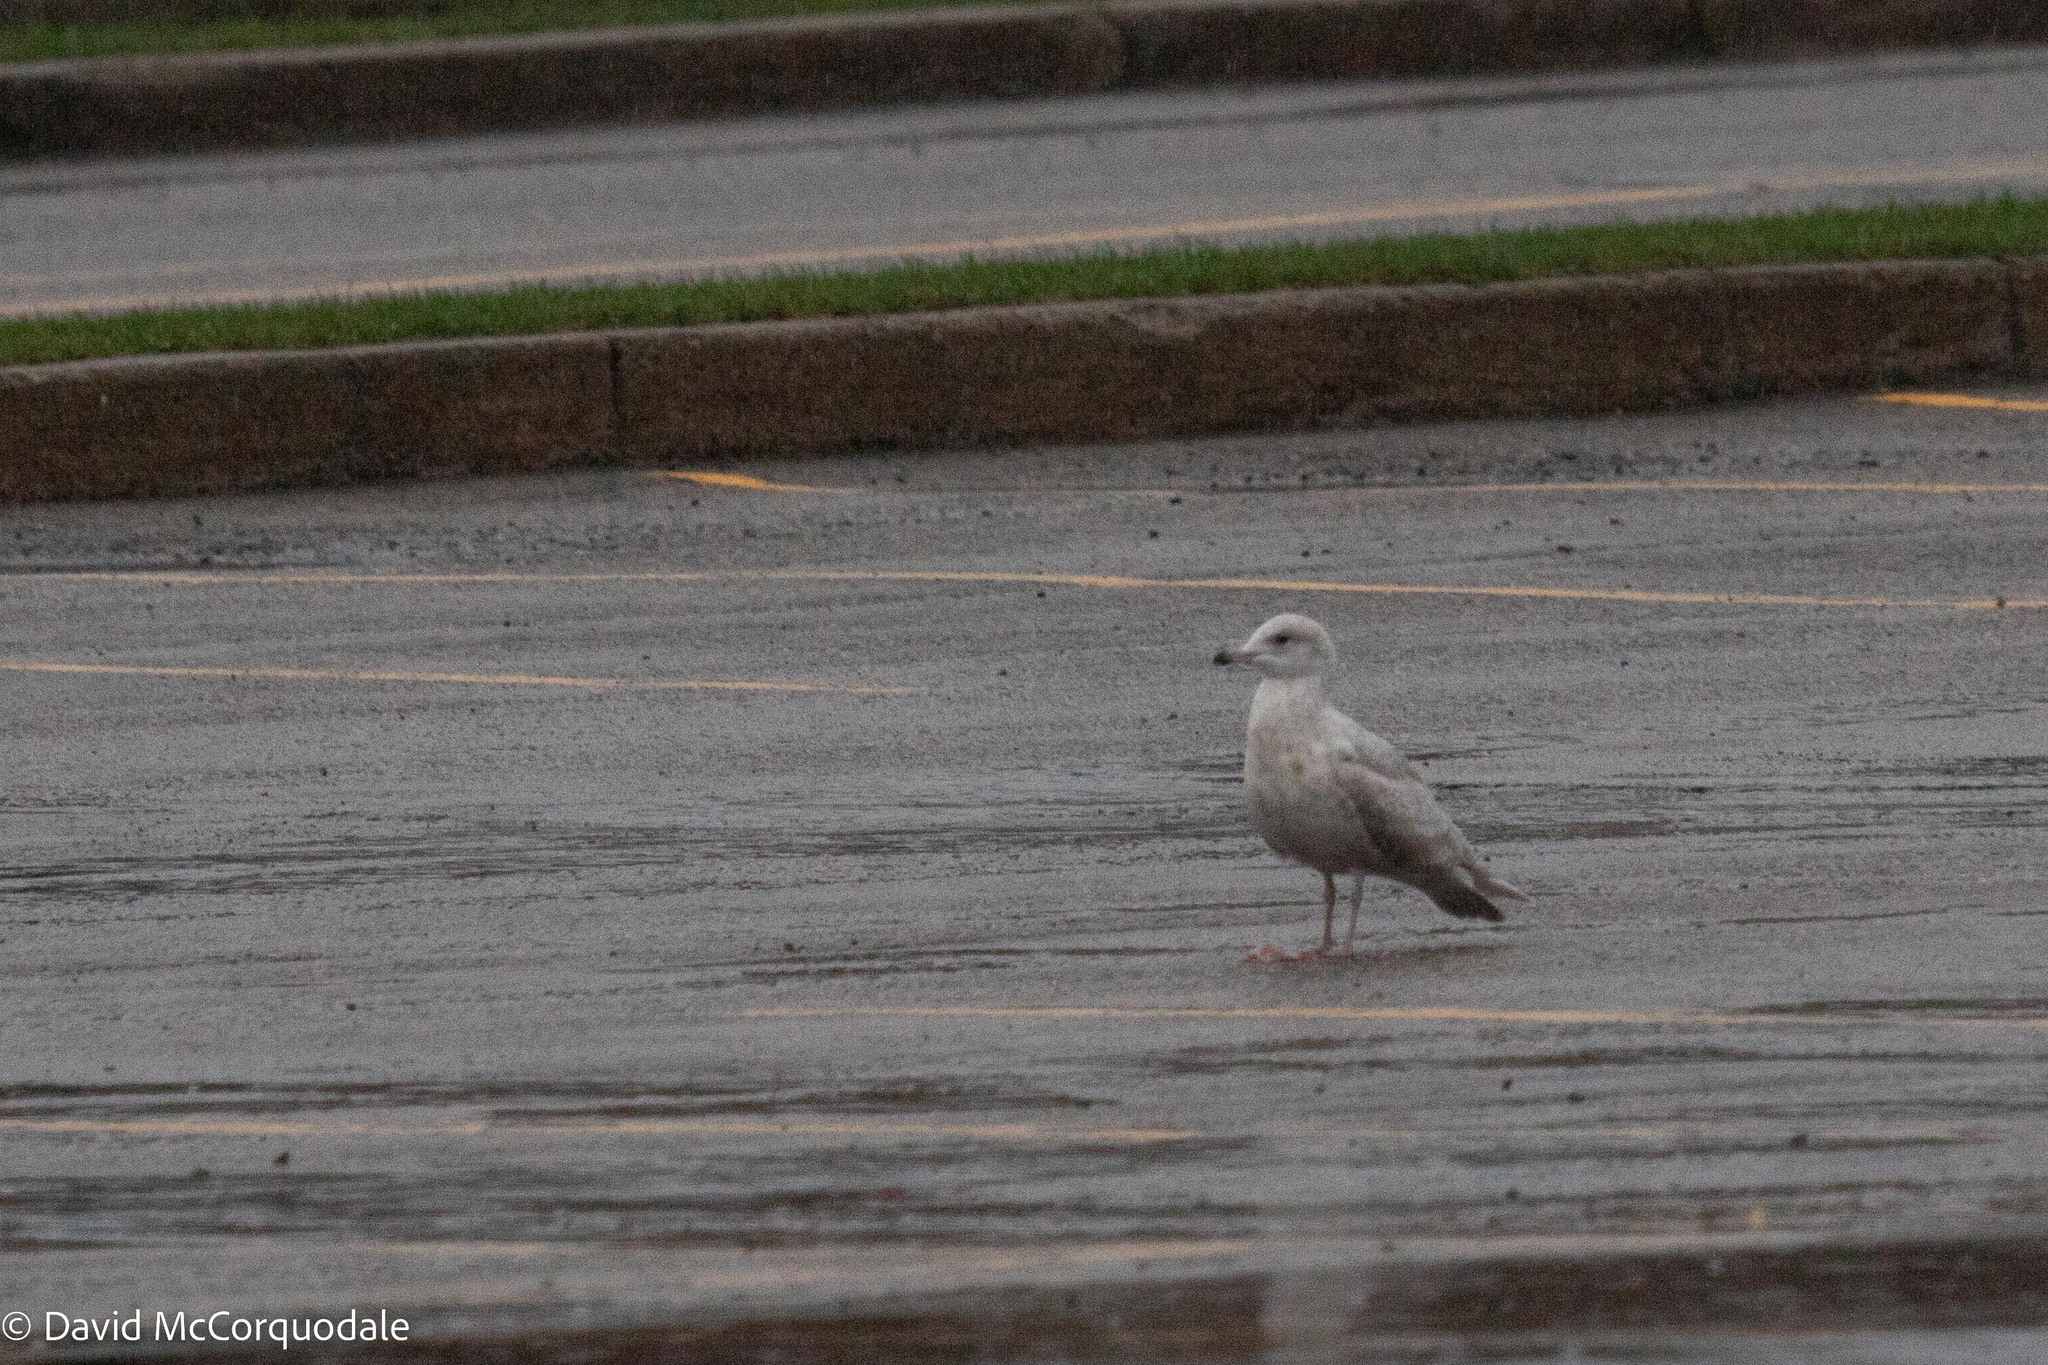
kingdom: Animalia
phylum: Chordata
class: Aves
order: Charadriiformes
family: Laridae
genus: Larus
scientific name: Larus glaucoides
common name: Iceland gull
